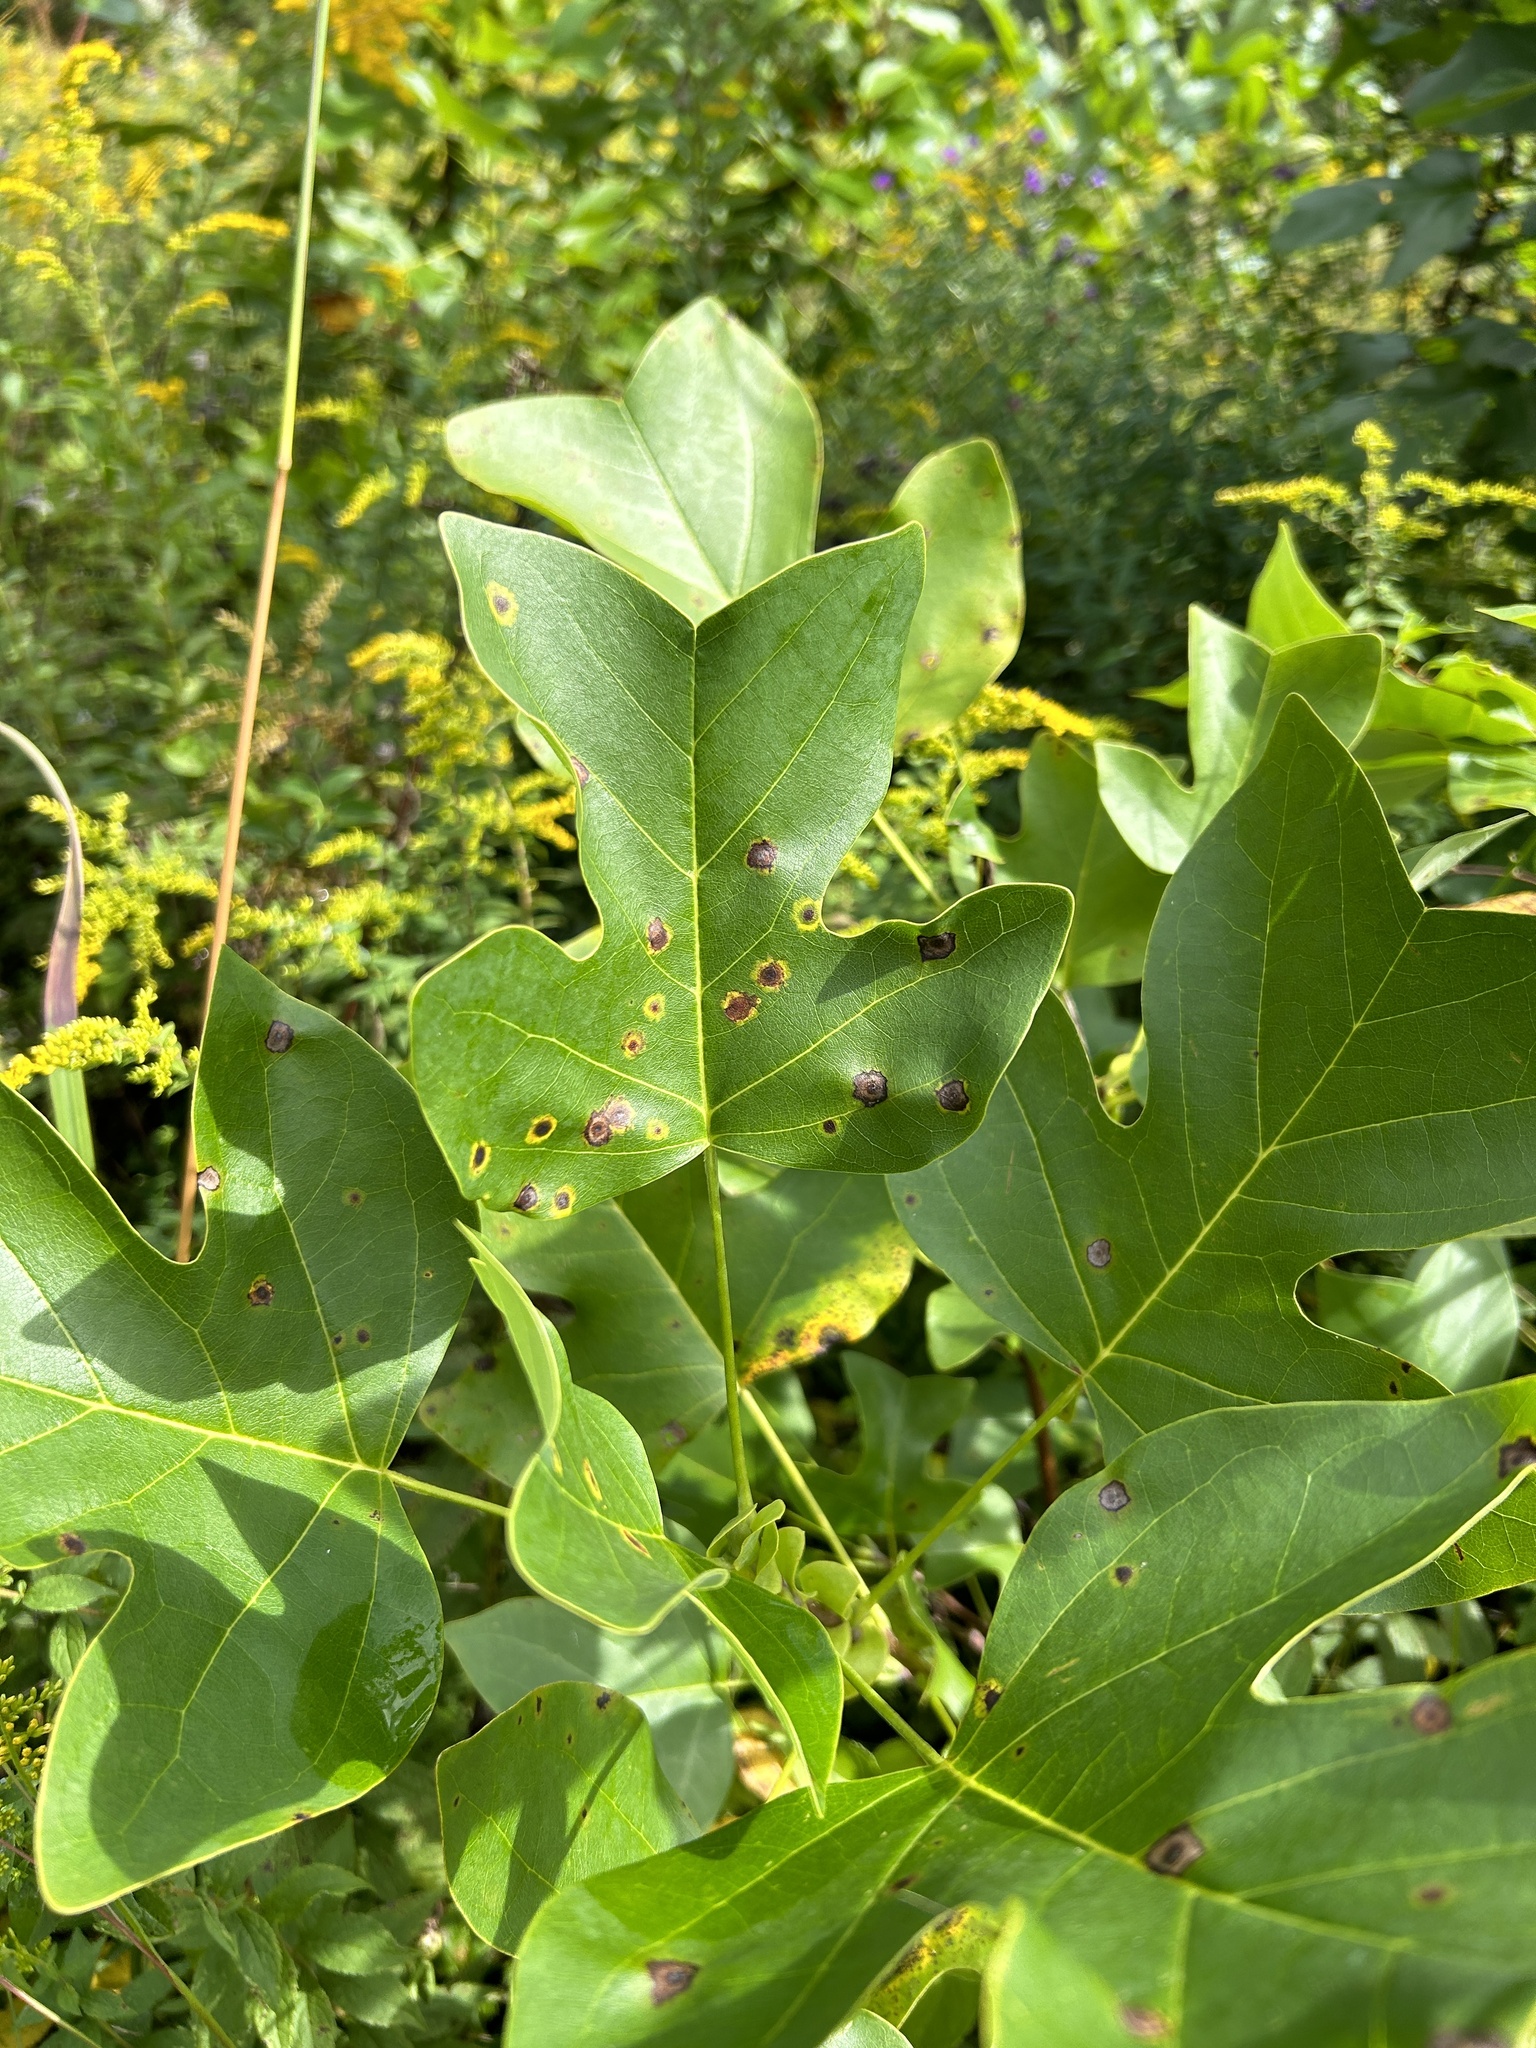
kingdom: Animalia
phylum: Arthropoda
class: Insecta
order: Diptera
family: Cecidomyiidae
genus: Resseliella
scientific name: Resseliella liriodendri
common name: Tulip tree leaf spot gall midge
